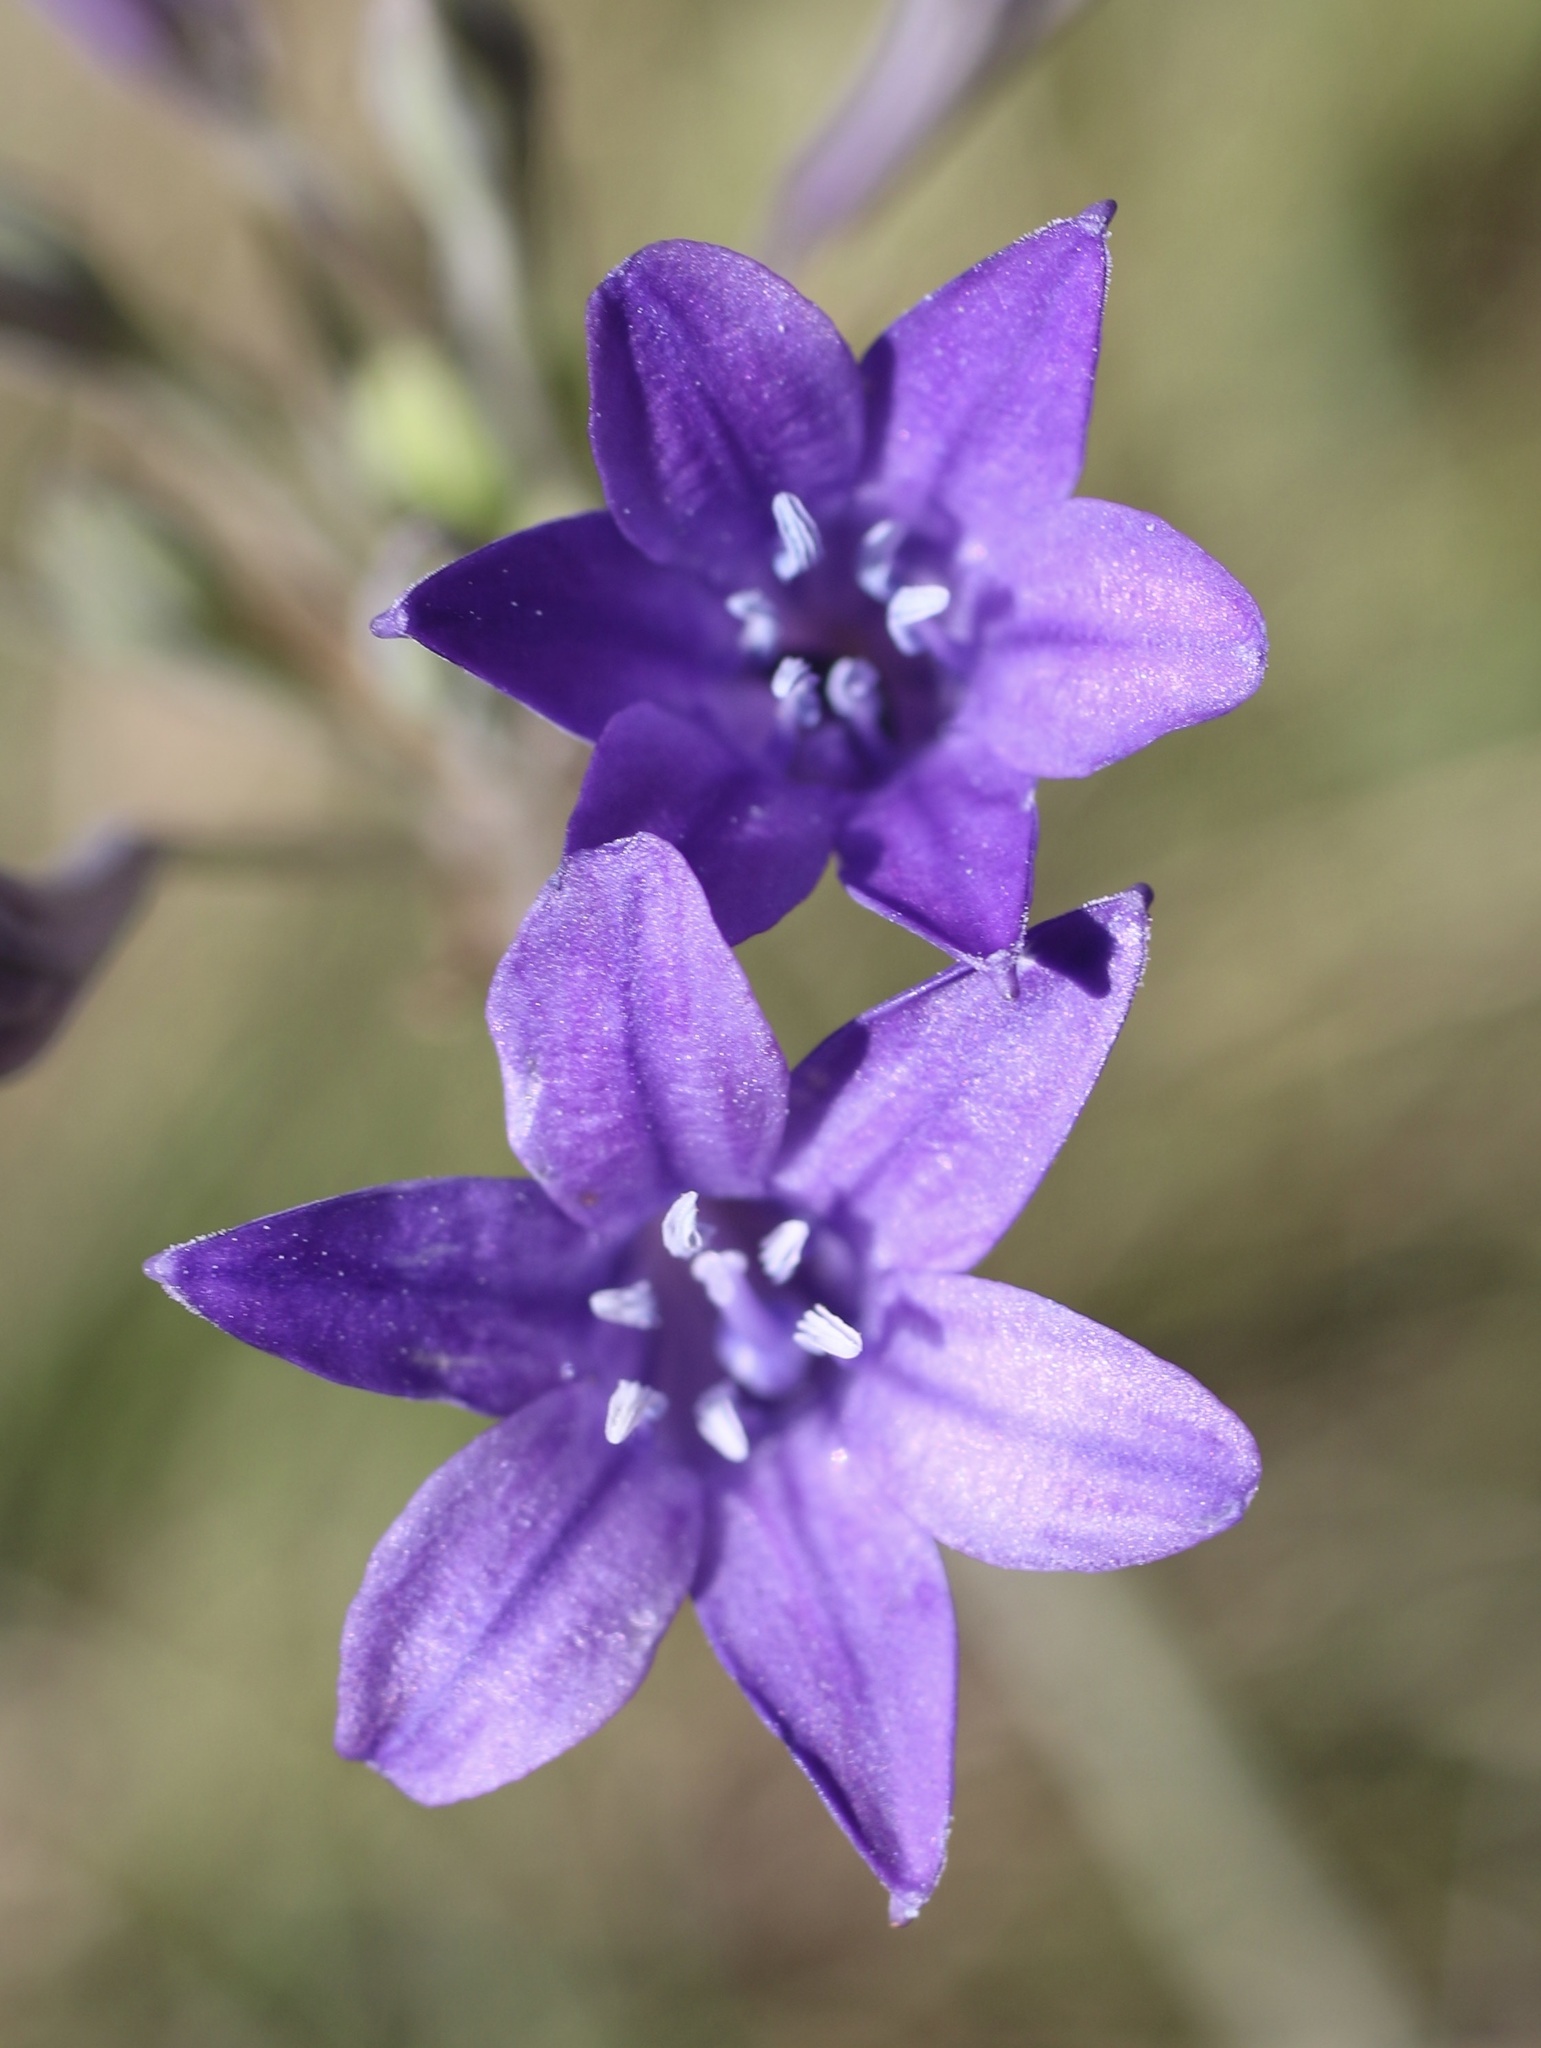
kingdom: Plantae
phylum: Tracheophyta
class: Liliopsida
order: Asparagales
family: Asparagaceae
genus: Triteleia
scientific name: Triteleia laxa
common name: Triplet-lily
